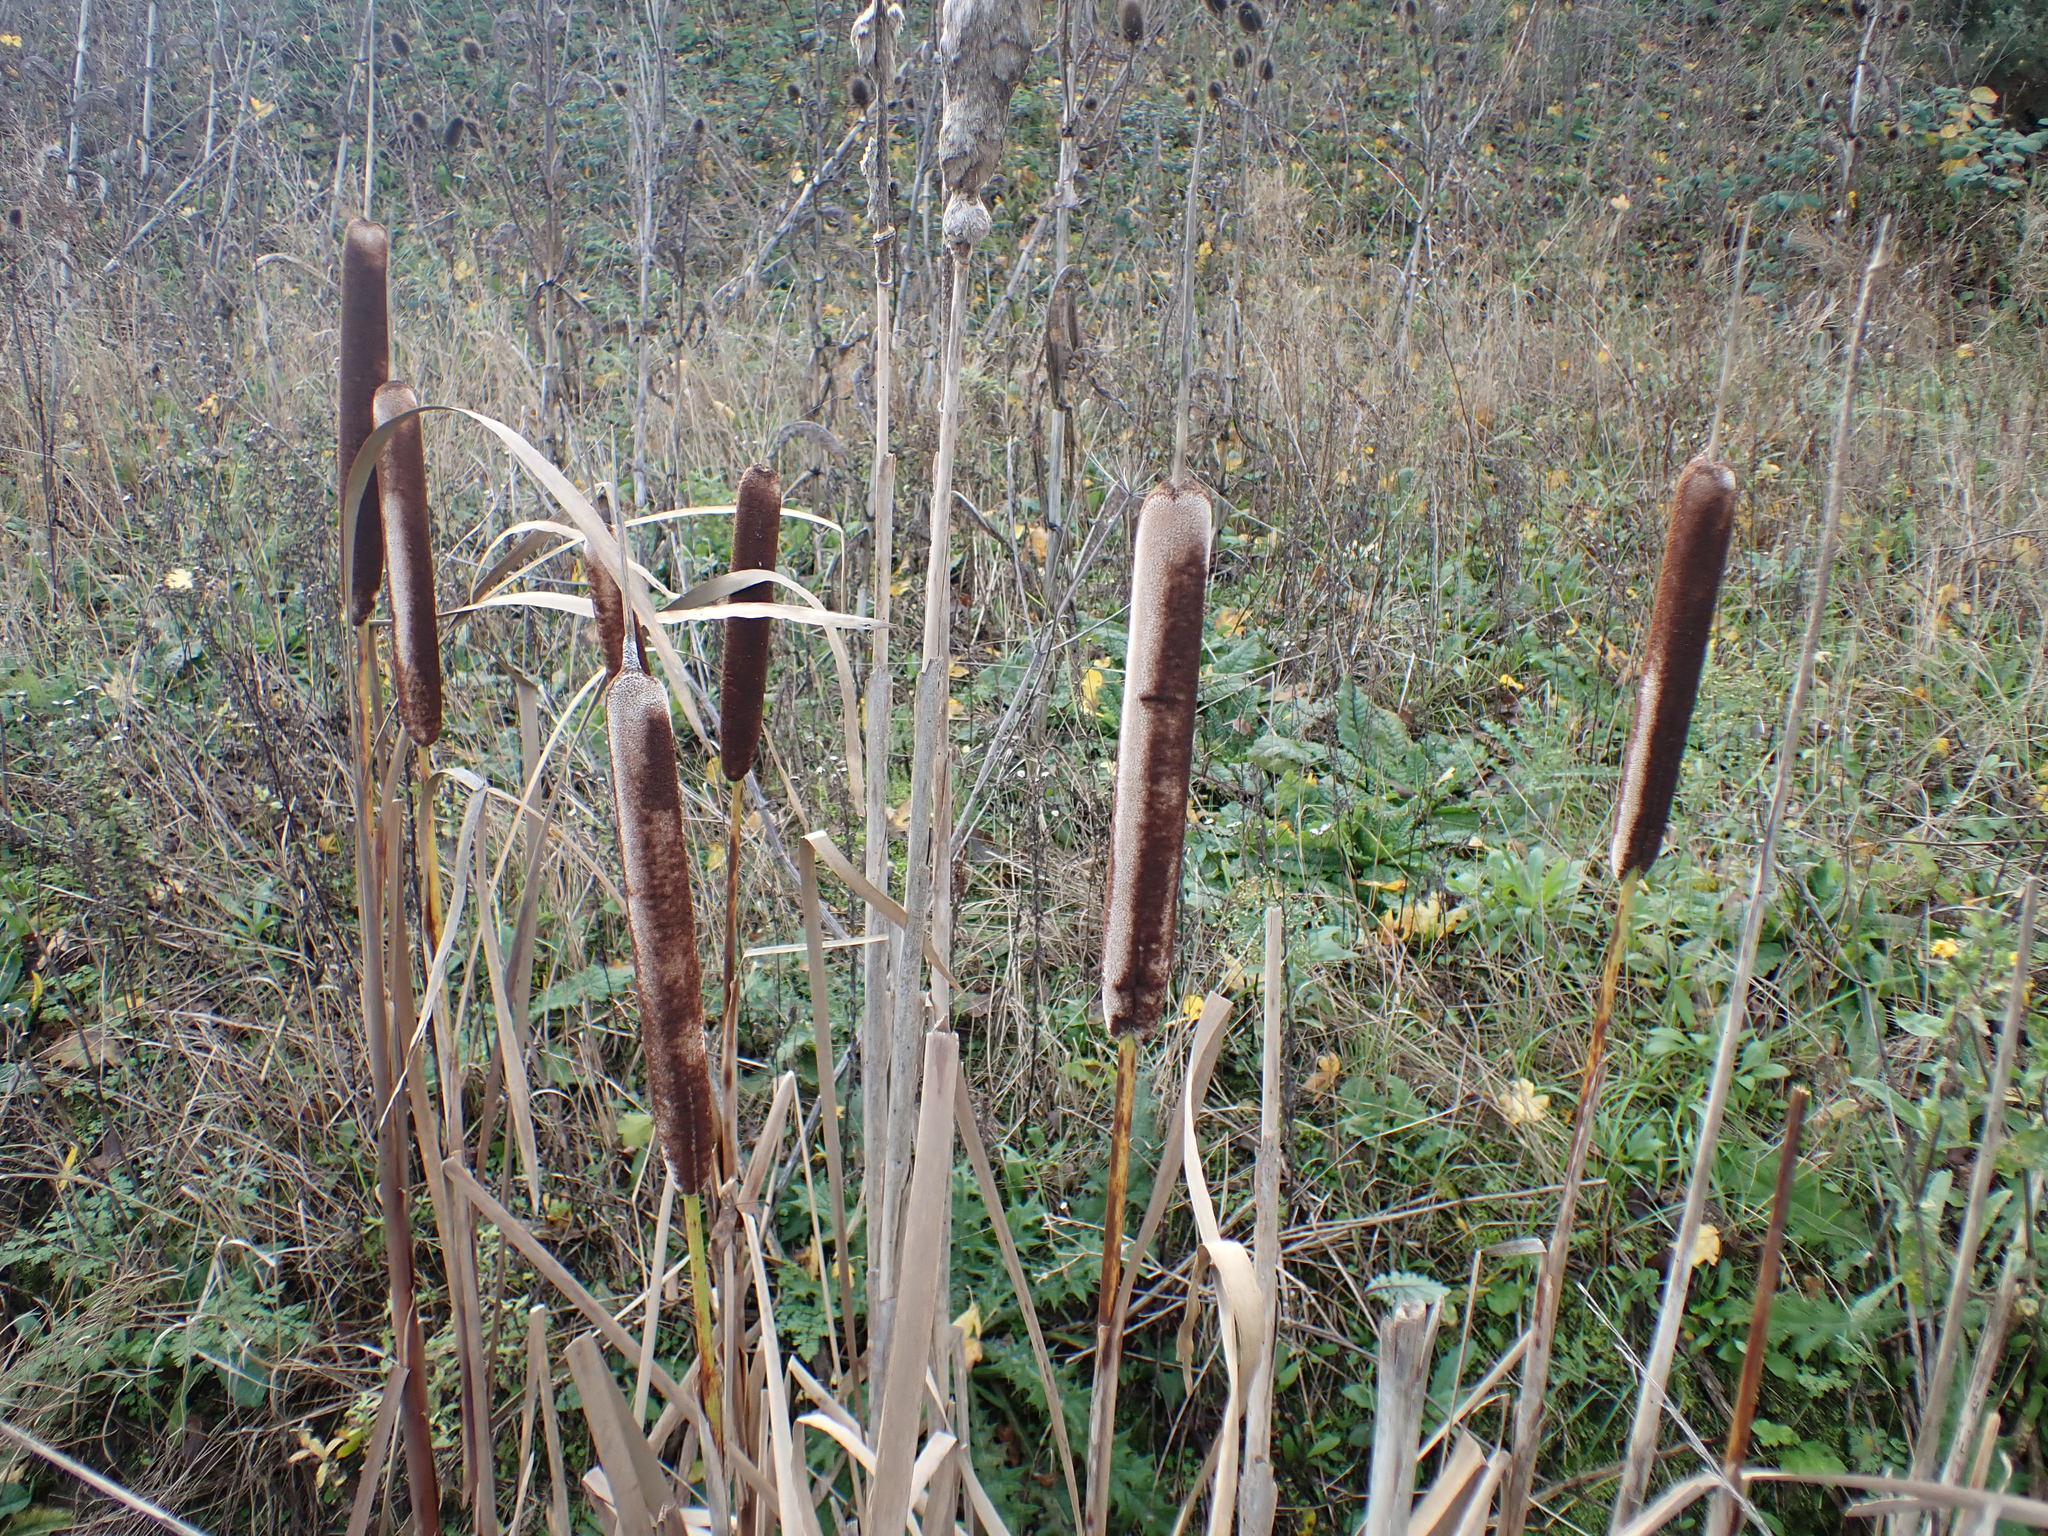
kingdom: Plantae
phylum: Tracheophyta
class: Liliopsida
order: Poales
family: Typhaceae
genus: Typha
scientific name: Typha latifolia
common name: Broadleaf cattail
